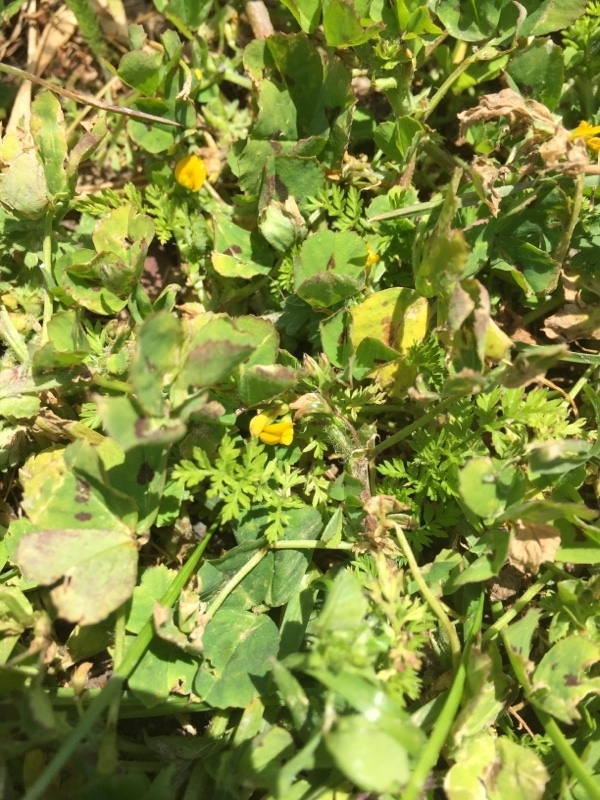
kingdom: Plantae
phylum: Tracheophyta
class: Magnoliopsida
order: Fabales
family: Fabaceae
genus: Medicago
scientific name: Medicago arabica
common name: Spotted medick
